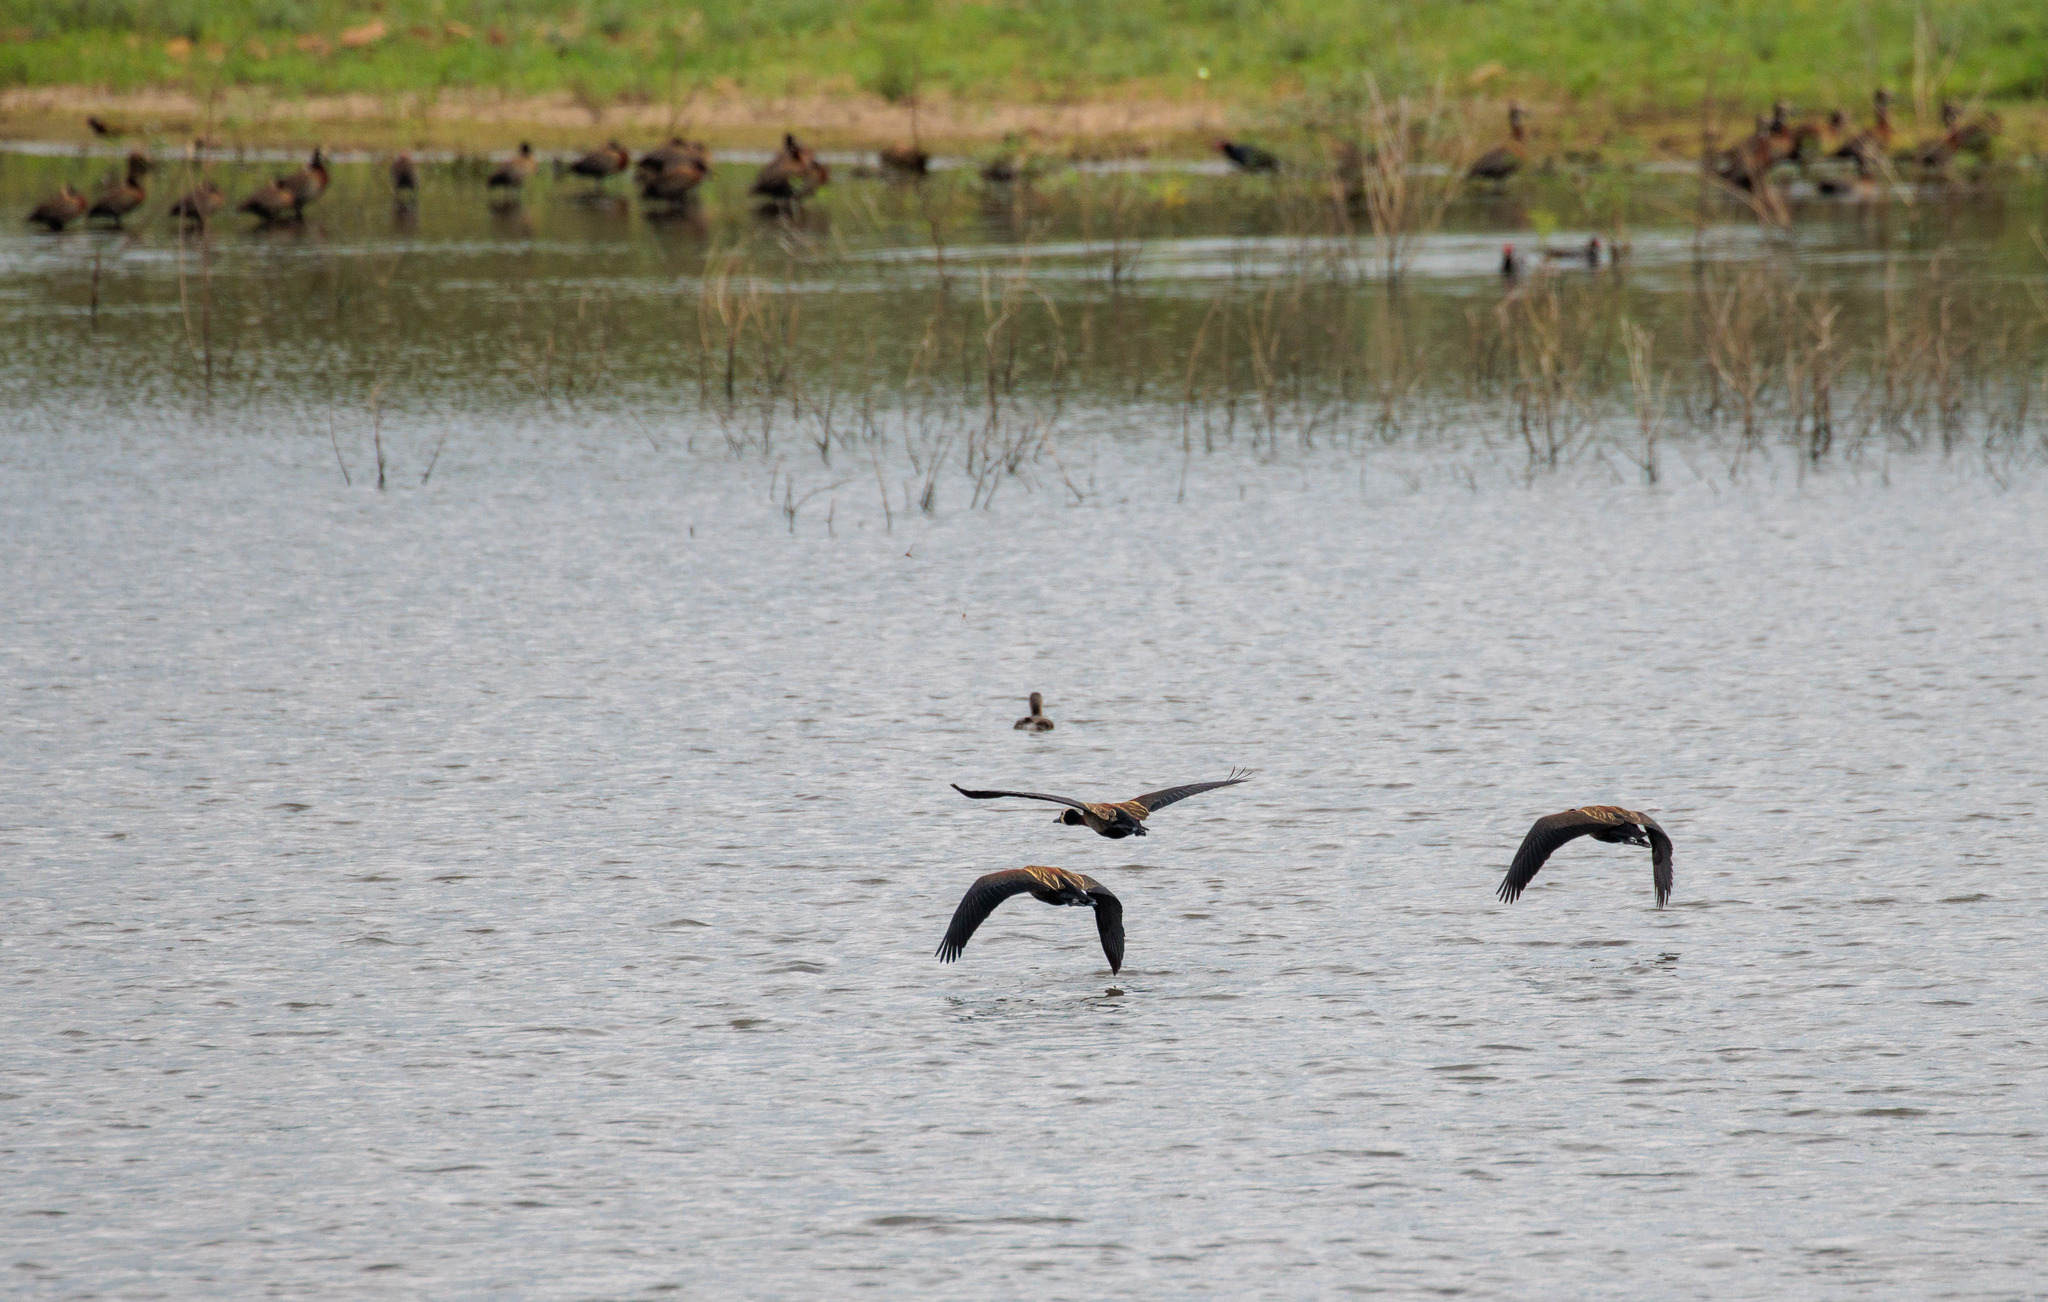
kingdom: Animalia
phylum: Chordata
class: Aves
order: Anseriformes
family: Anatidae
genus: Dendrocygna
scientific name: Dendrocygna viduata
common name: White-faced whistling duck
